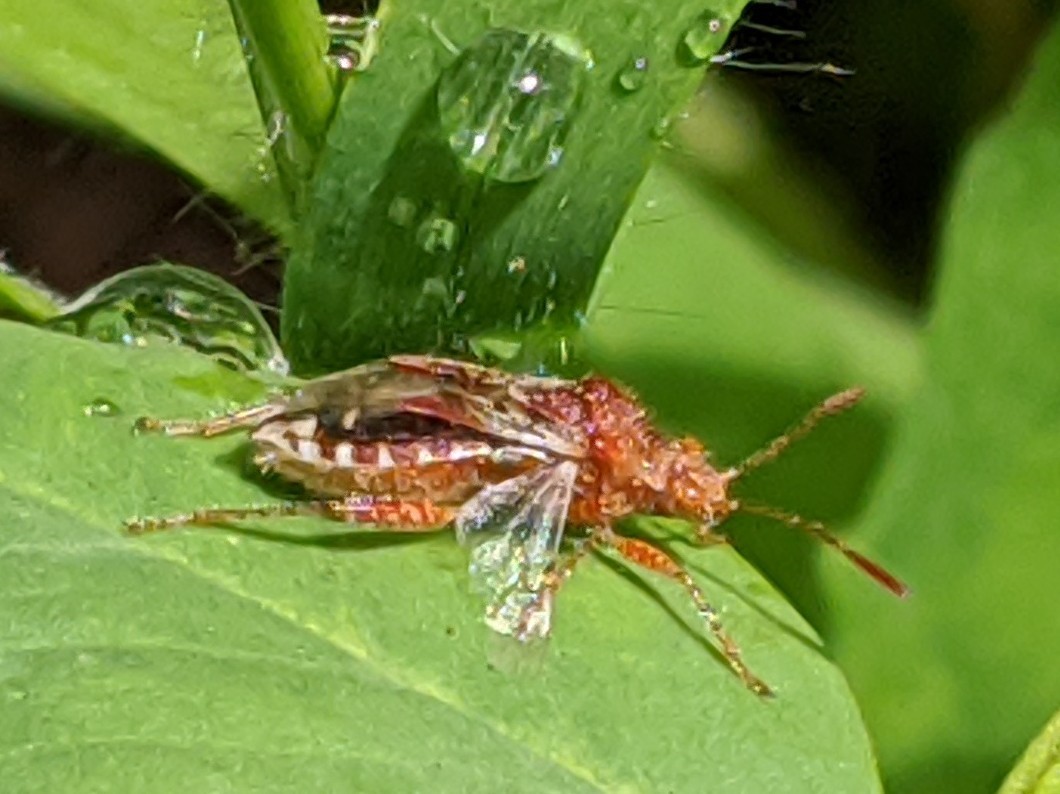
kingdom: Animalia
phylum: Arthropoda
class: Insecta
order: Hemiptera
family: Rhopalidae
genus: Rhopalus
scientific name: Rhopalus subrufus
